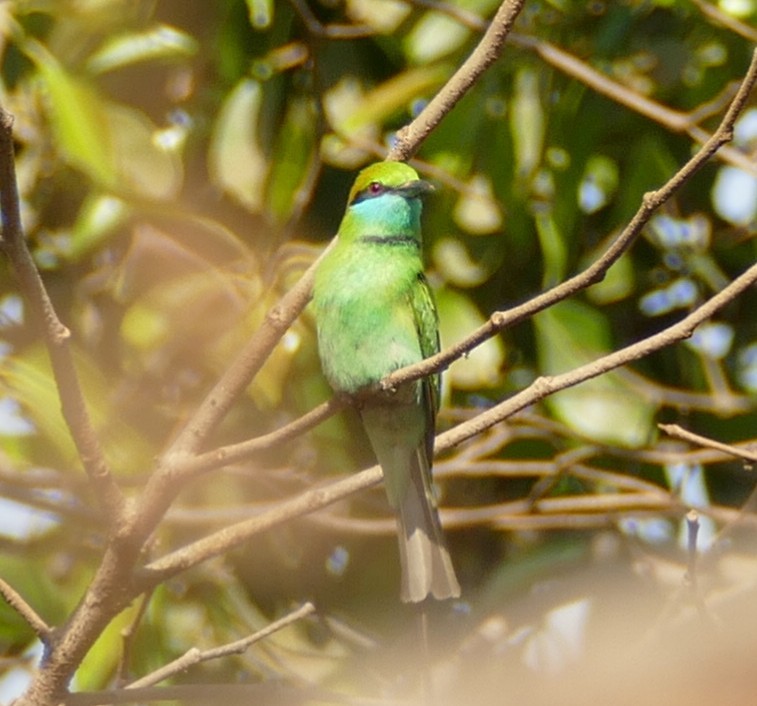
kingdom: Animalia
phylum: Chordata
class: Aves
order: Coraciiformes
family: Meropidae
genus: Merops
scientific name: Merops orientalis
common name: Green bee-eater
